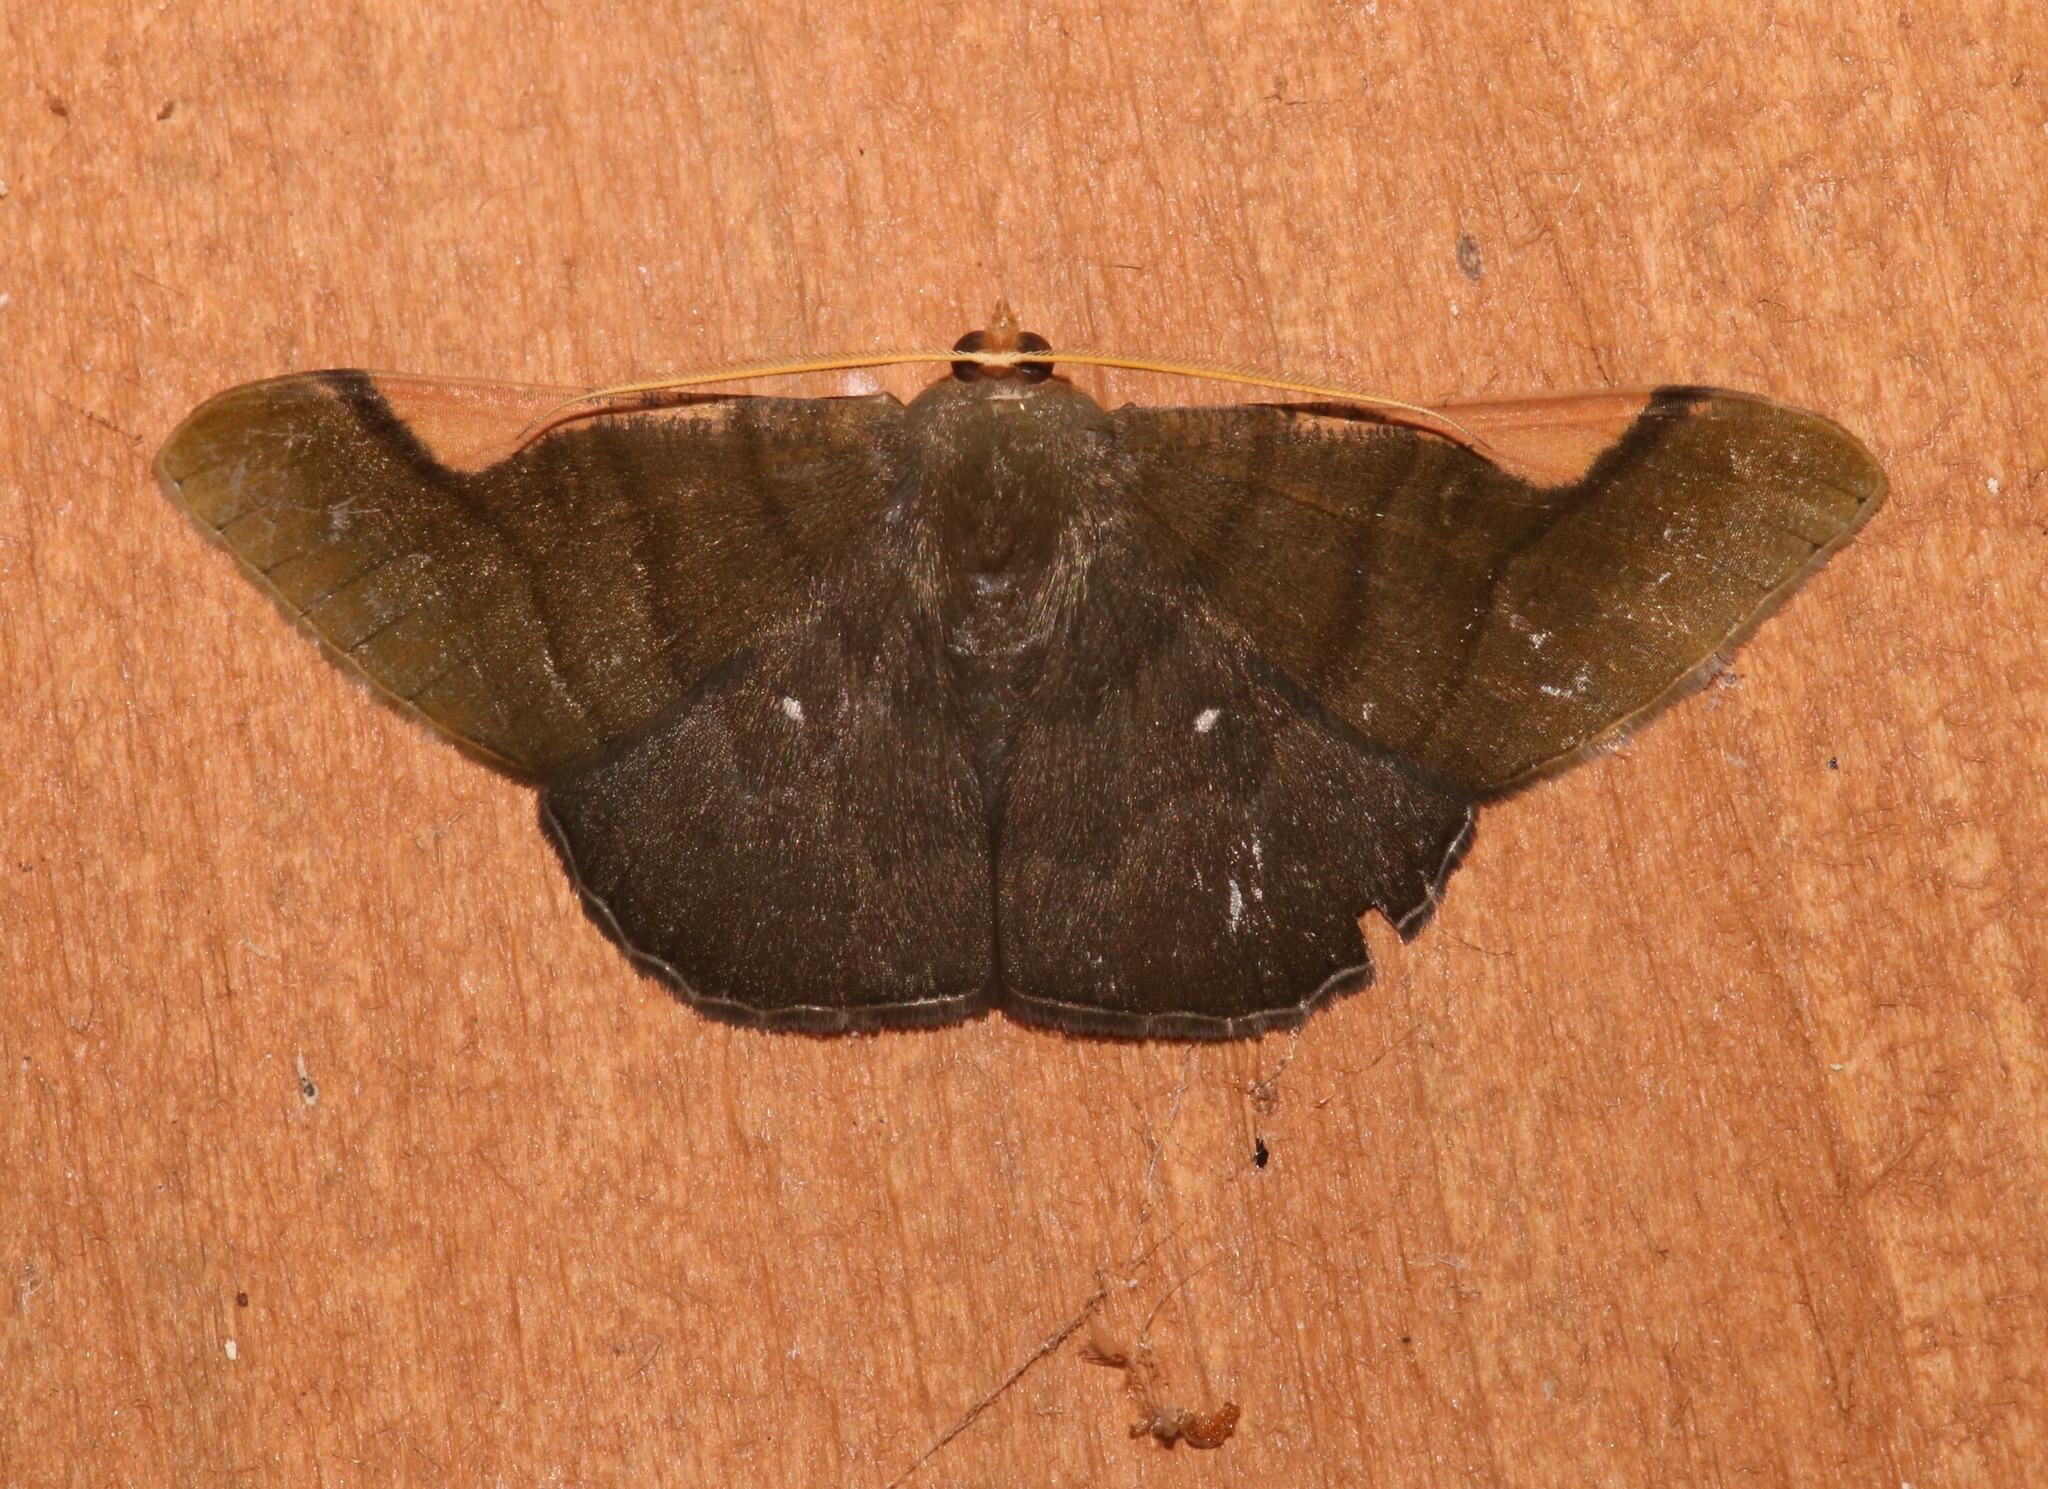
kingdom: Animalia
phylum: Arthropoda
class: Insecta
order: Lepidoptera
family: Geometridae
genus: Sphacelodes
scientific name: Sphacelodes vulneraria
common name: Looper moth
